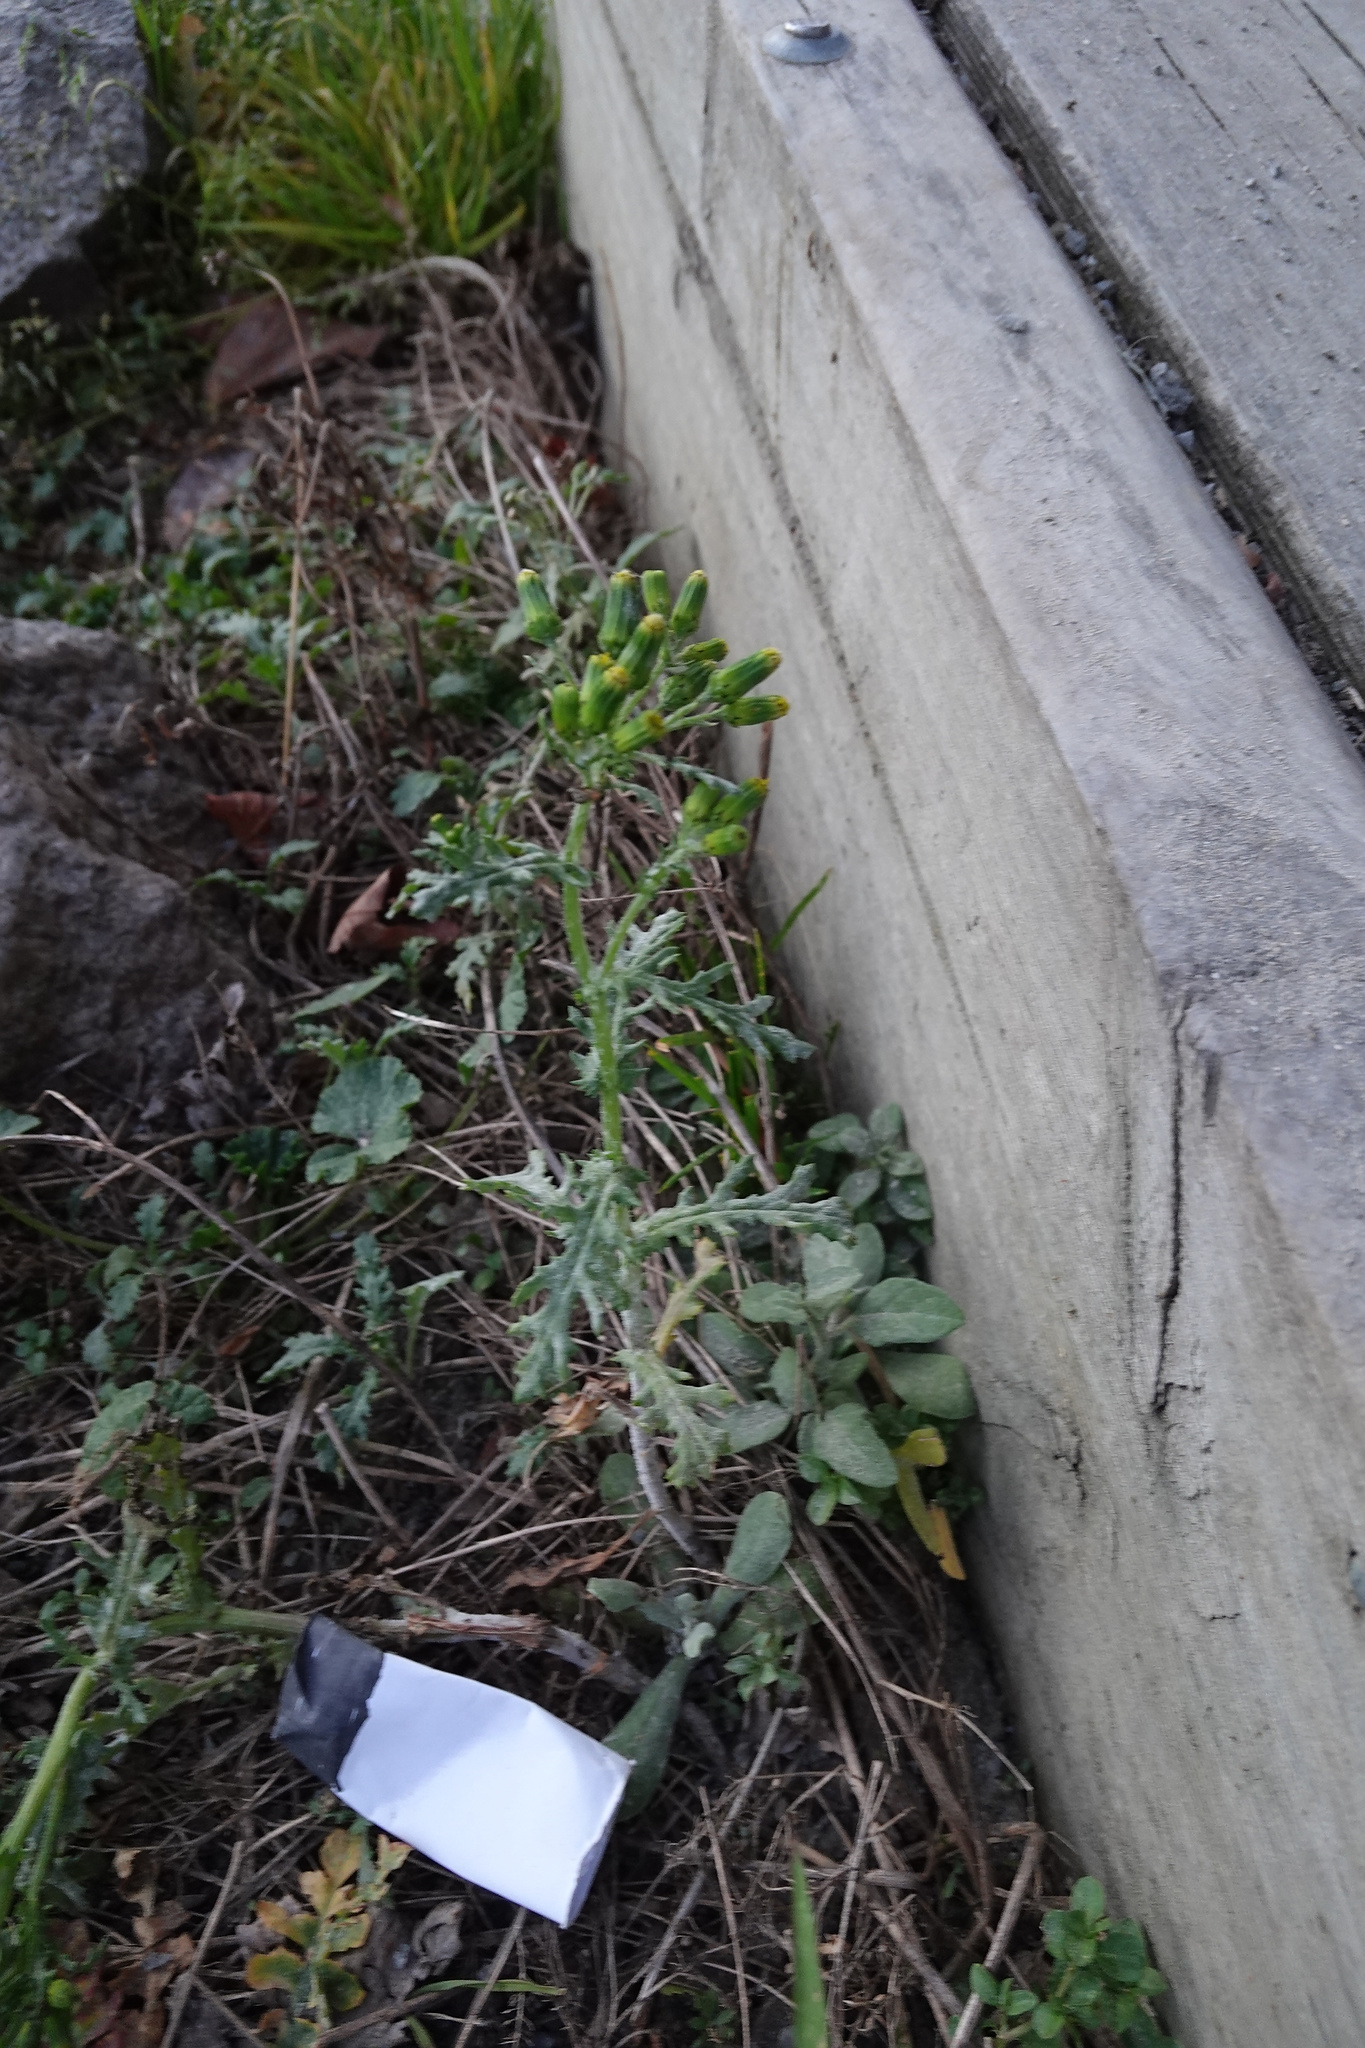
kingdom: Plantae
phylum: Tracheophyta
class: Magnoliopsida
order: Asterales
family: Asteraceae
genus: Senecio
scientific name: Senecio vulgaris
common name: Old-man-in-the-spring
